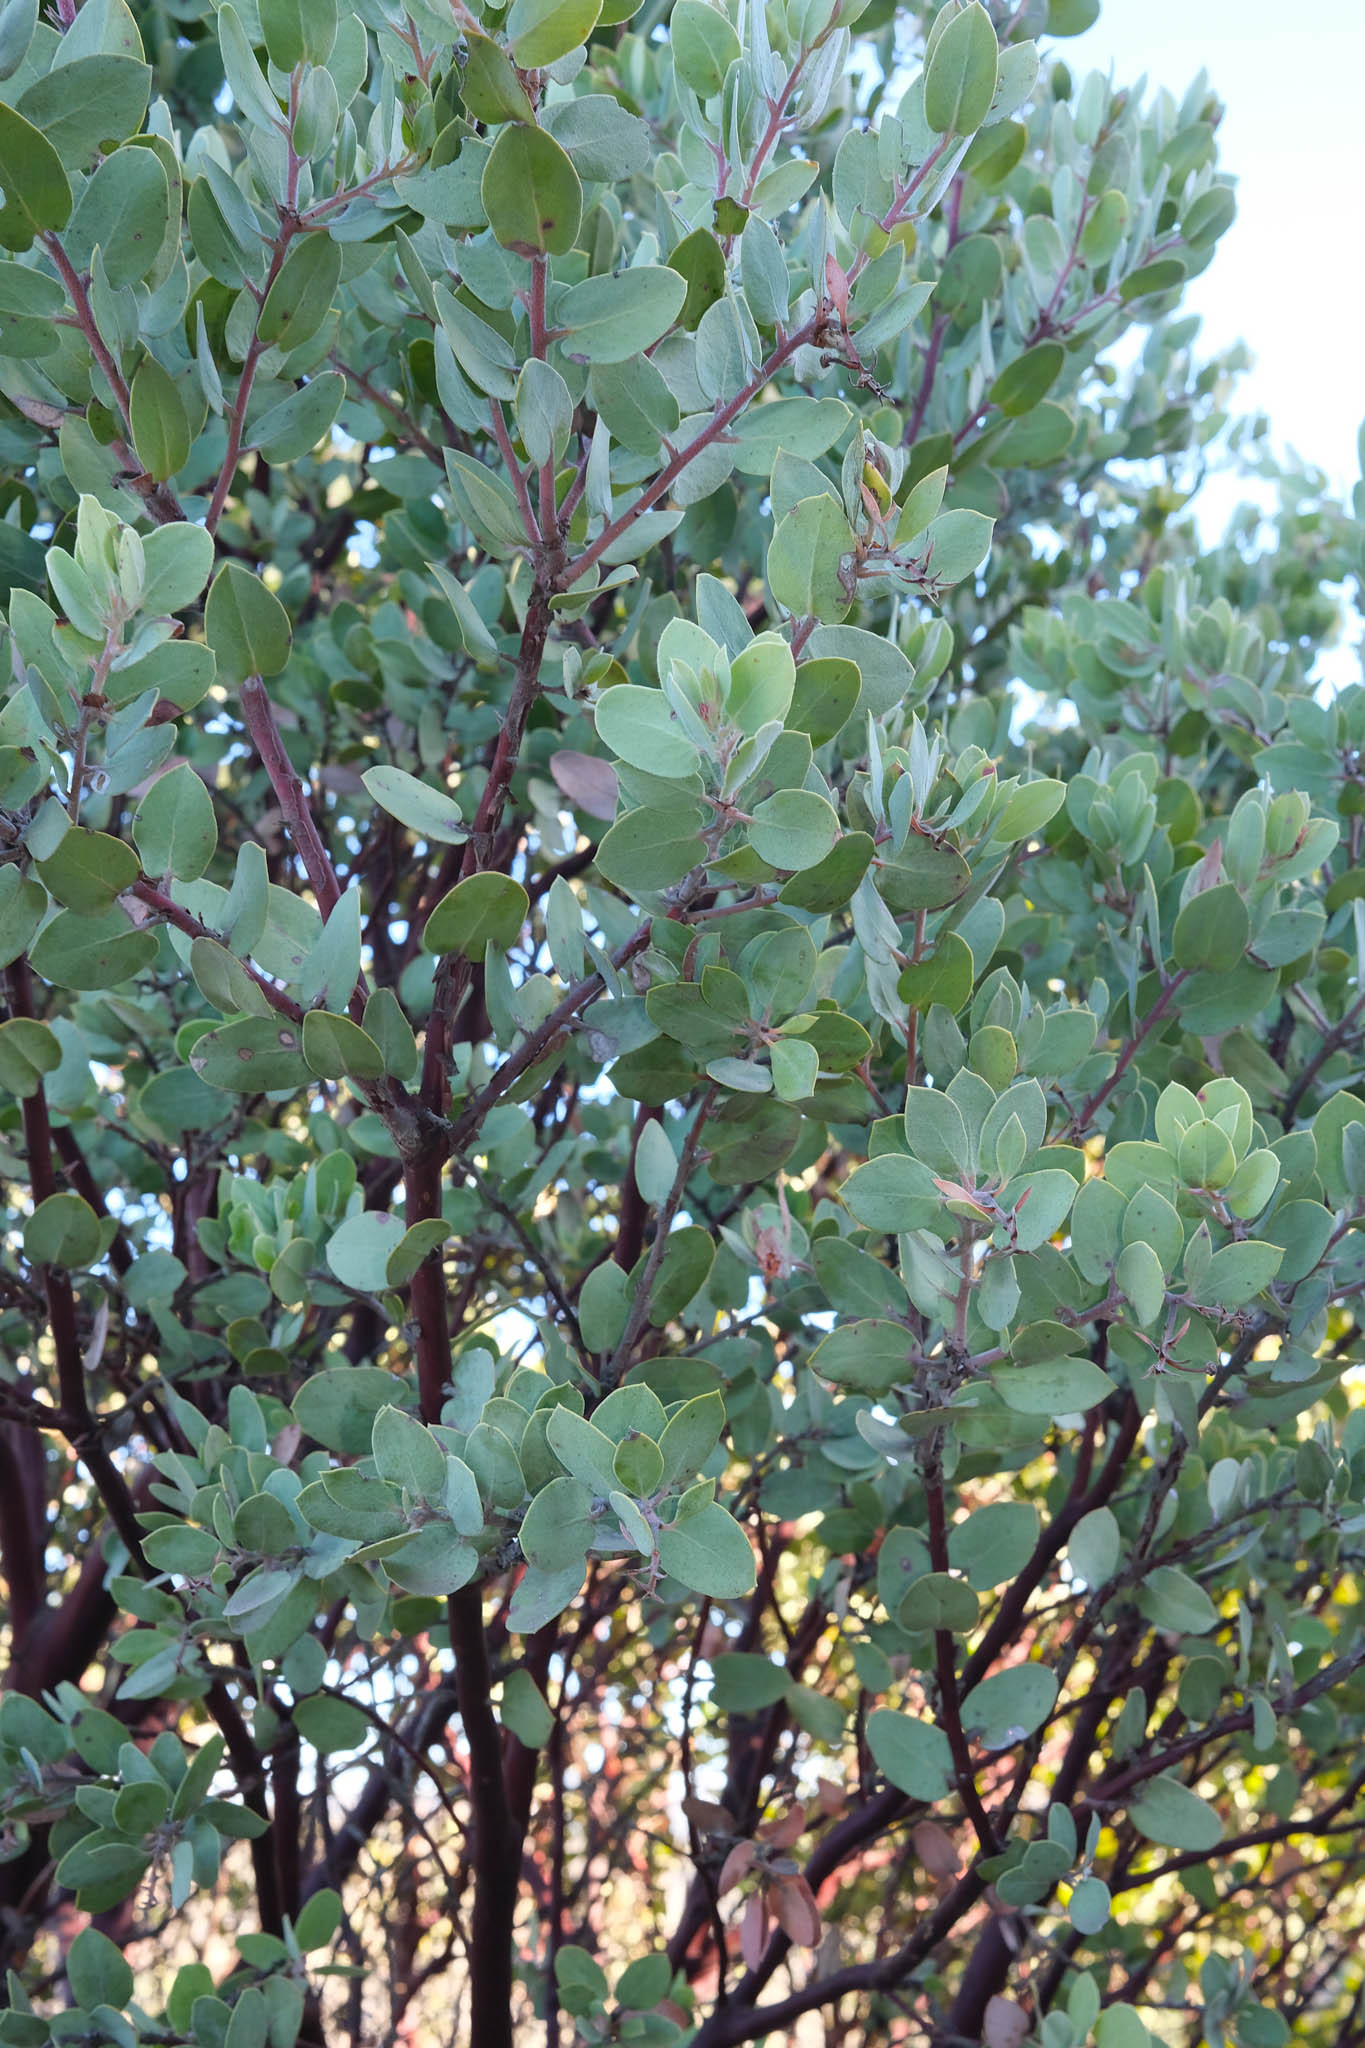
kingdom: Plantae
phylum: Tracheophyta
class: Magnoliopsida
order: Ericales
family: Ericaceae
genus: Arctostaphylos
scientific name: Arctostaphylos obispoensis
